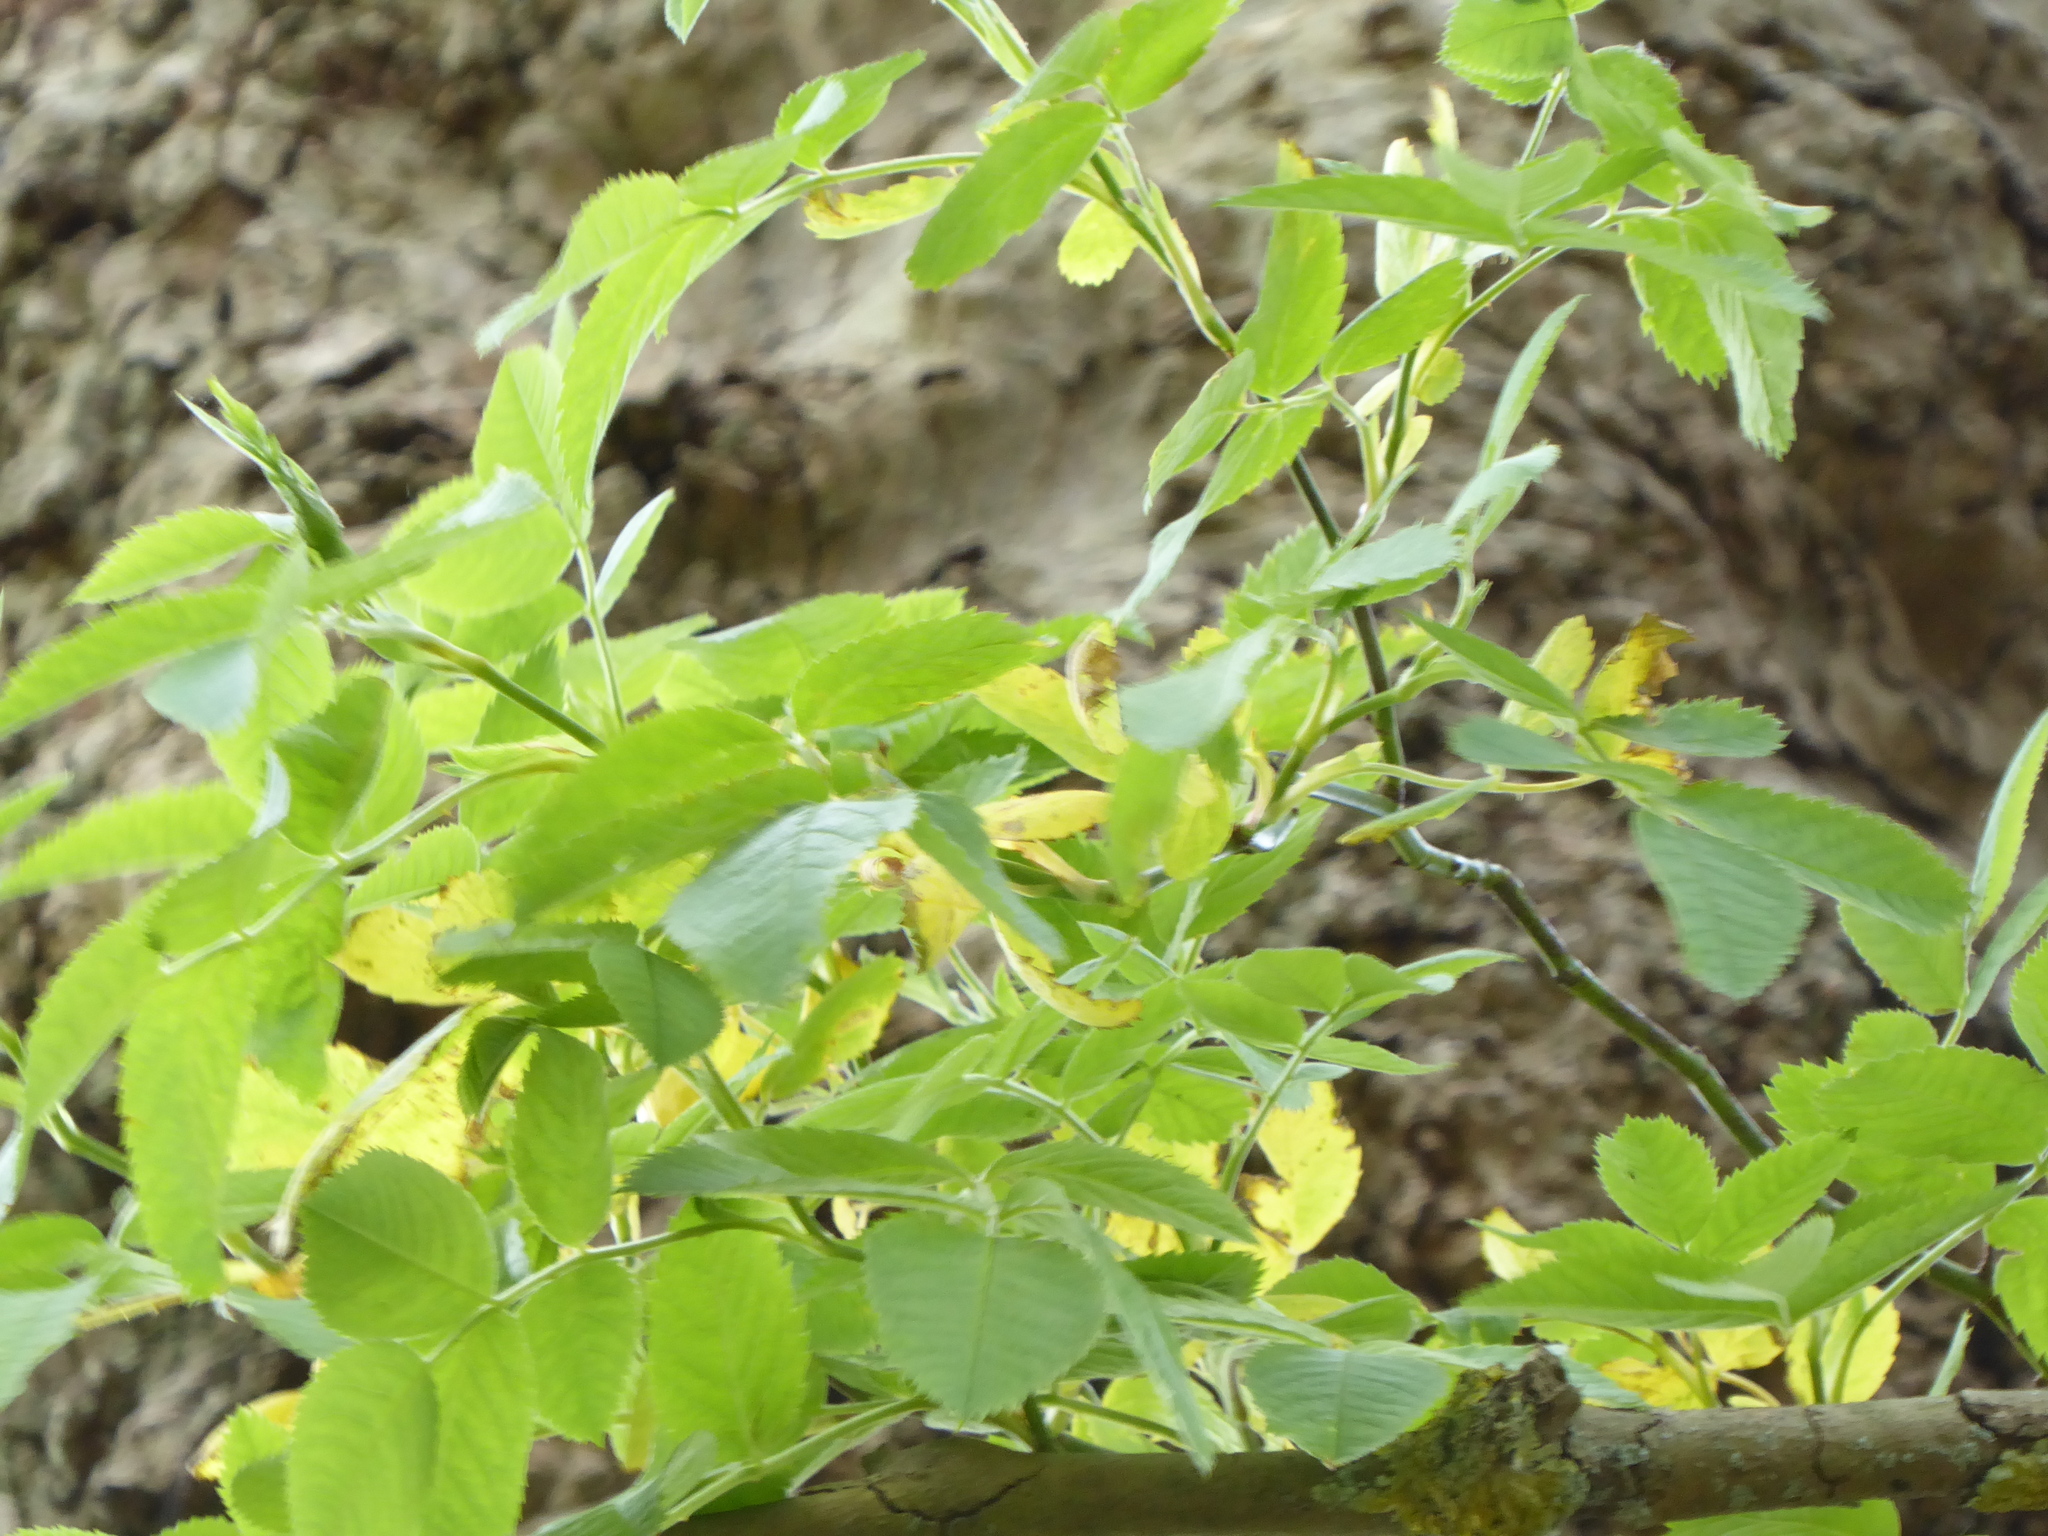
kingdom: Plantae
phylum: Tracheophyta
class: Magnoliopsida
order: Dipsacales
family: Viburnaceae
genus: Sambucus
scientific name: Sambucus nigra
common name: Elder
